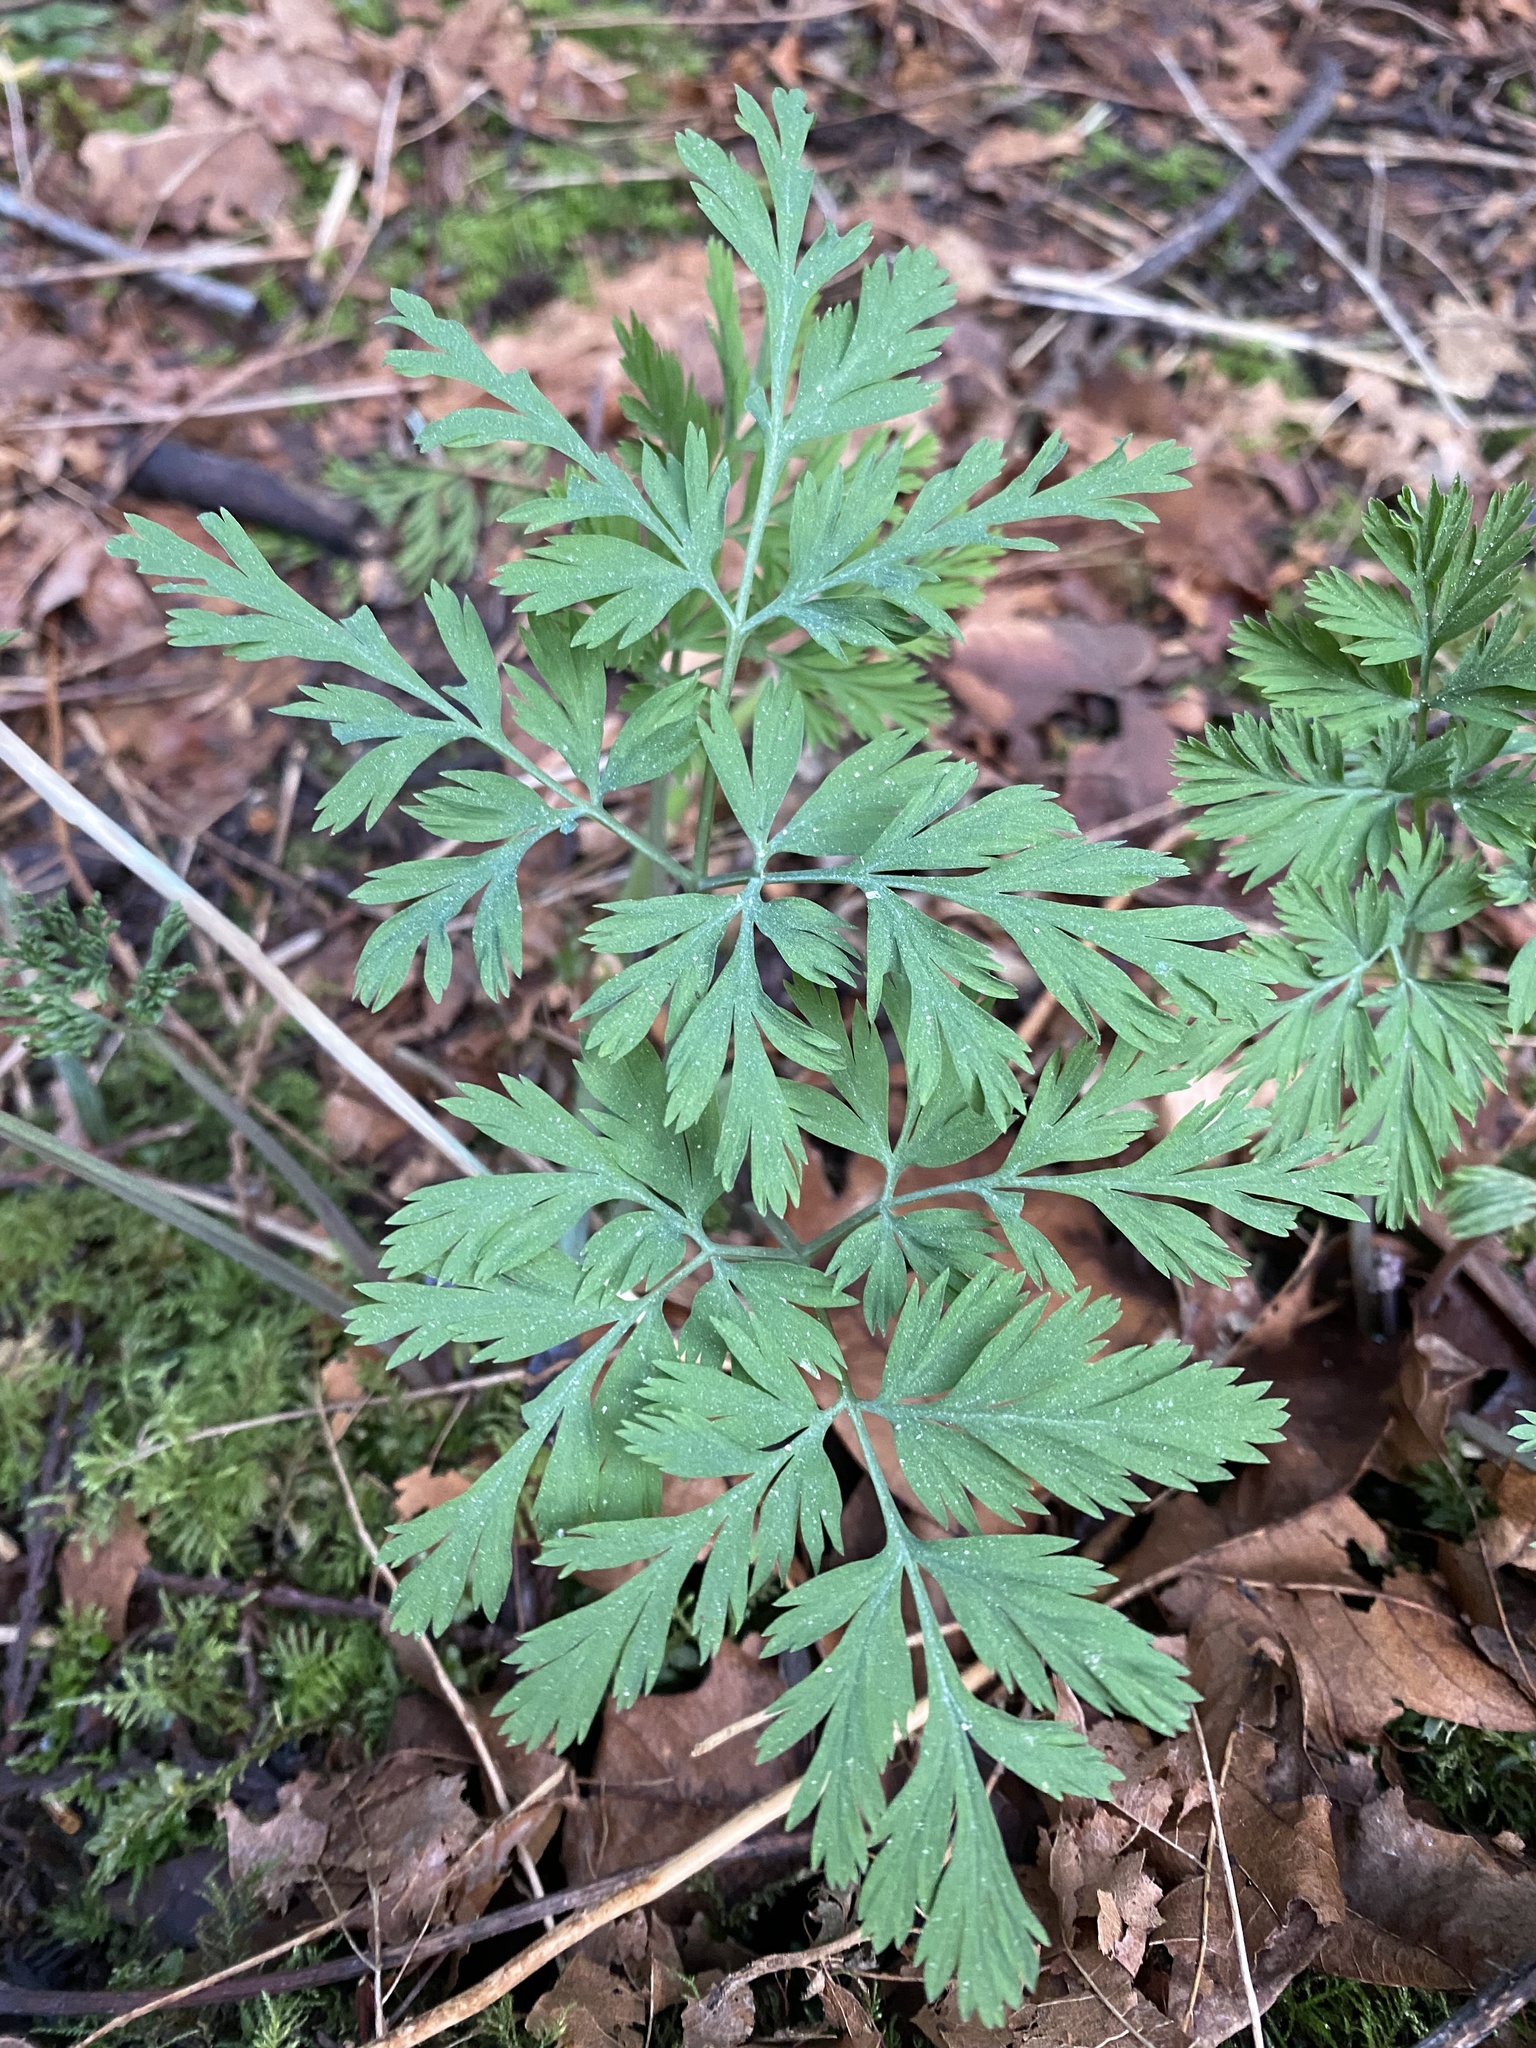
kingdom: Plantae
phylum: Tracheophyta
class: Magnoliopsida
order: Ranunculales
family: Papaveraceae
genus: Dicentra
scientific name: Dicentra formosa
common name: Bleeding-heart
